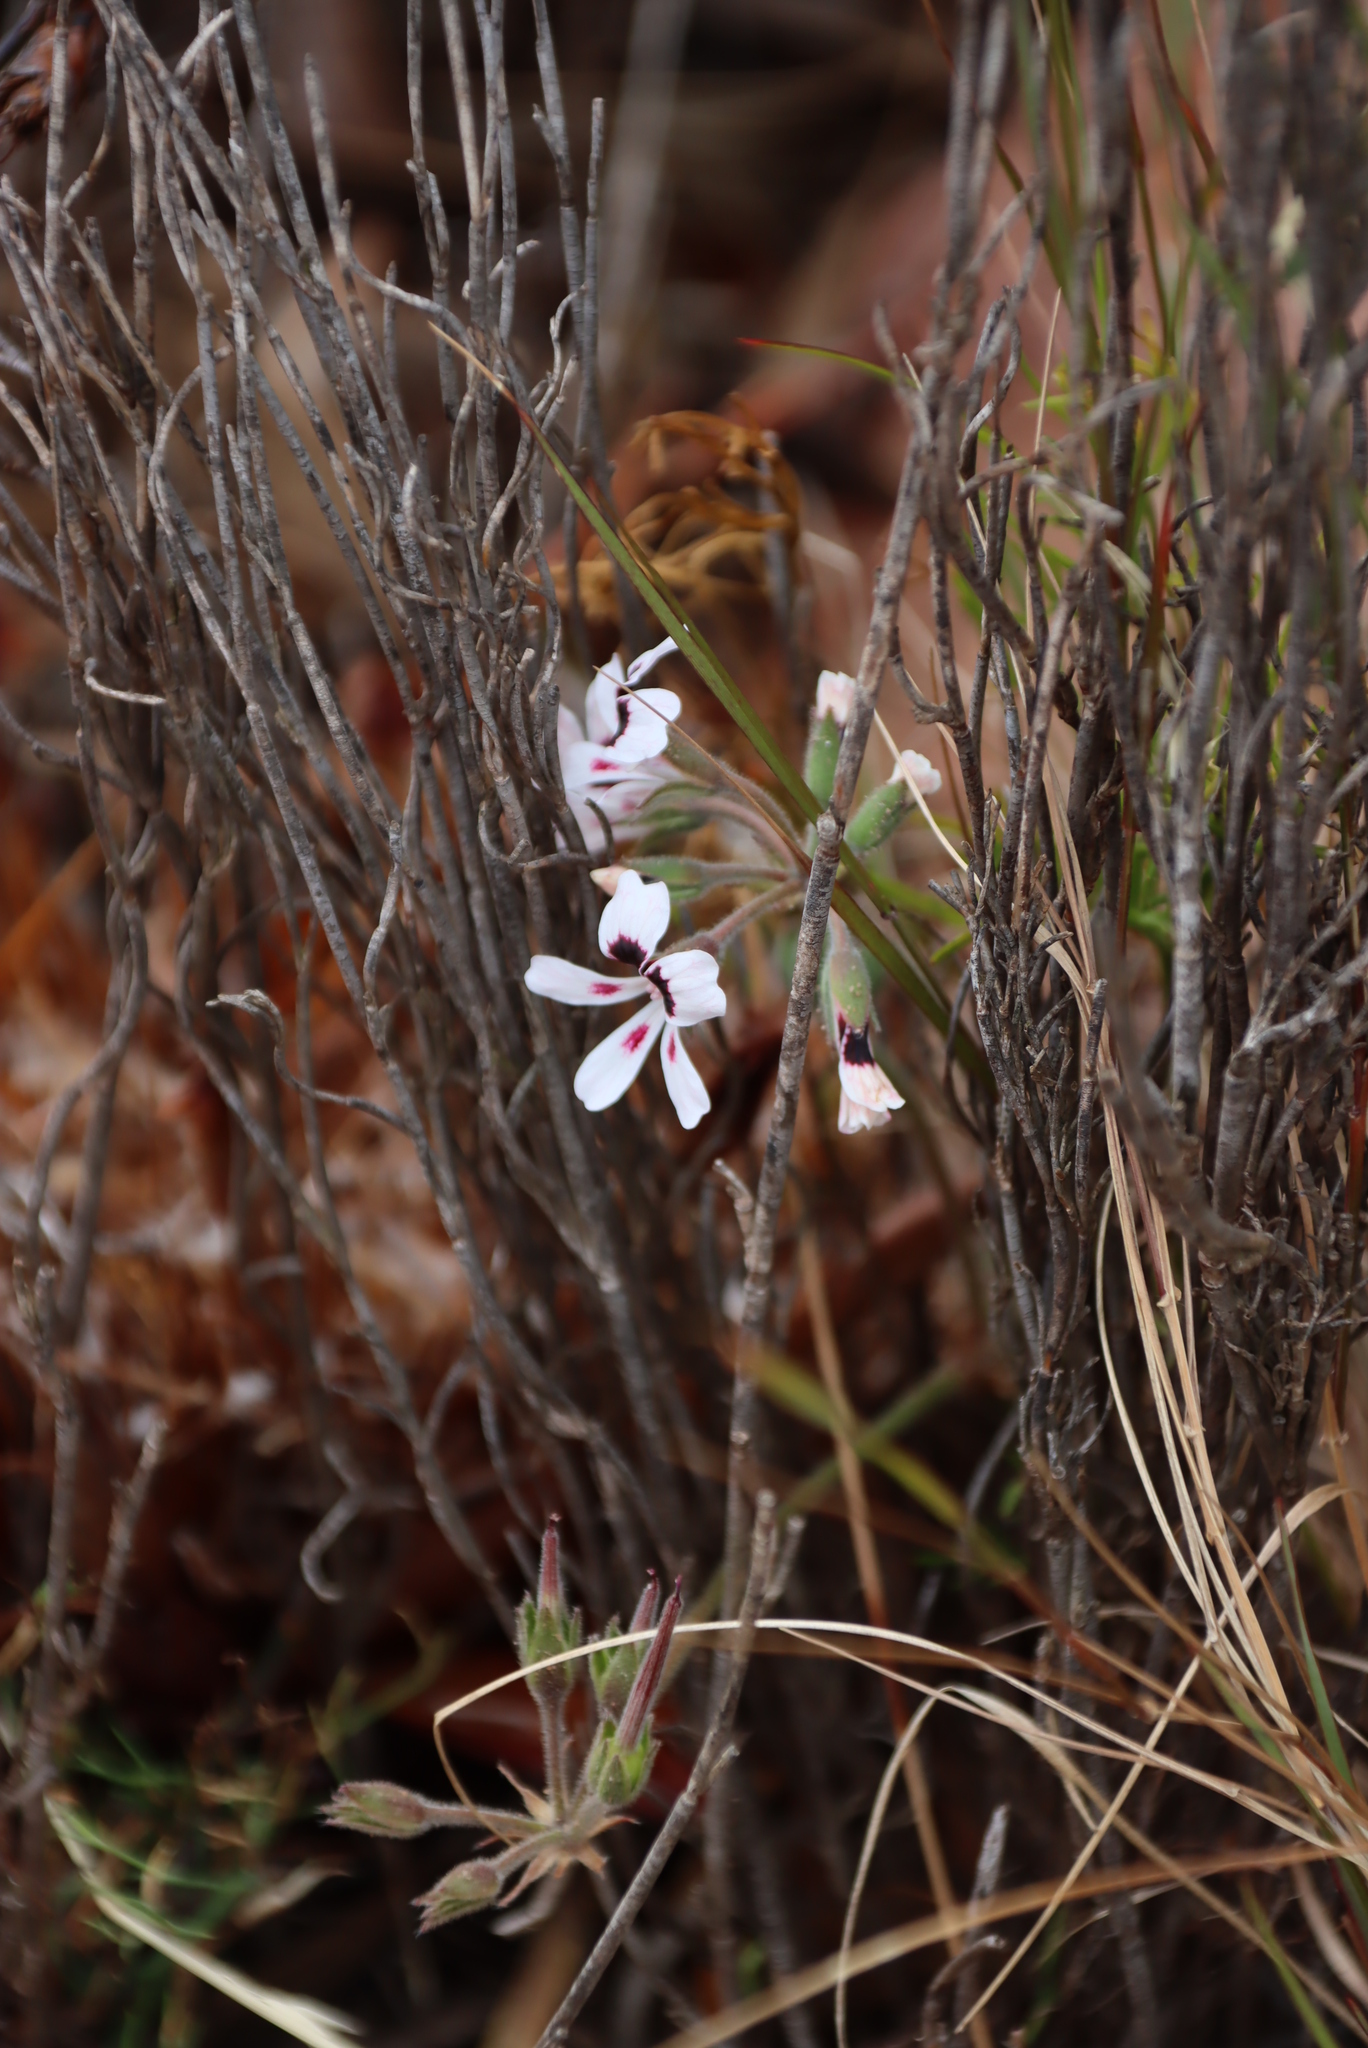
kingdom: Plantae
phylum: Tracheophyta
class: Magnoliopsida
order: Geraniales
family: Geraniaceae
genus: Pelargonium
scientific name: Pelargonium psammophilum
